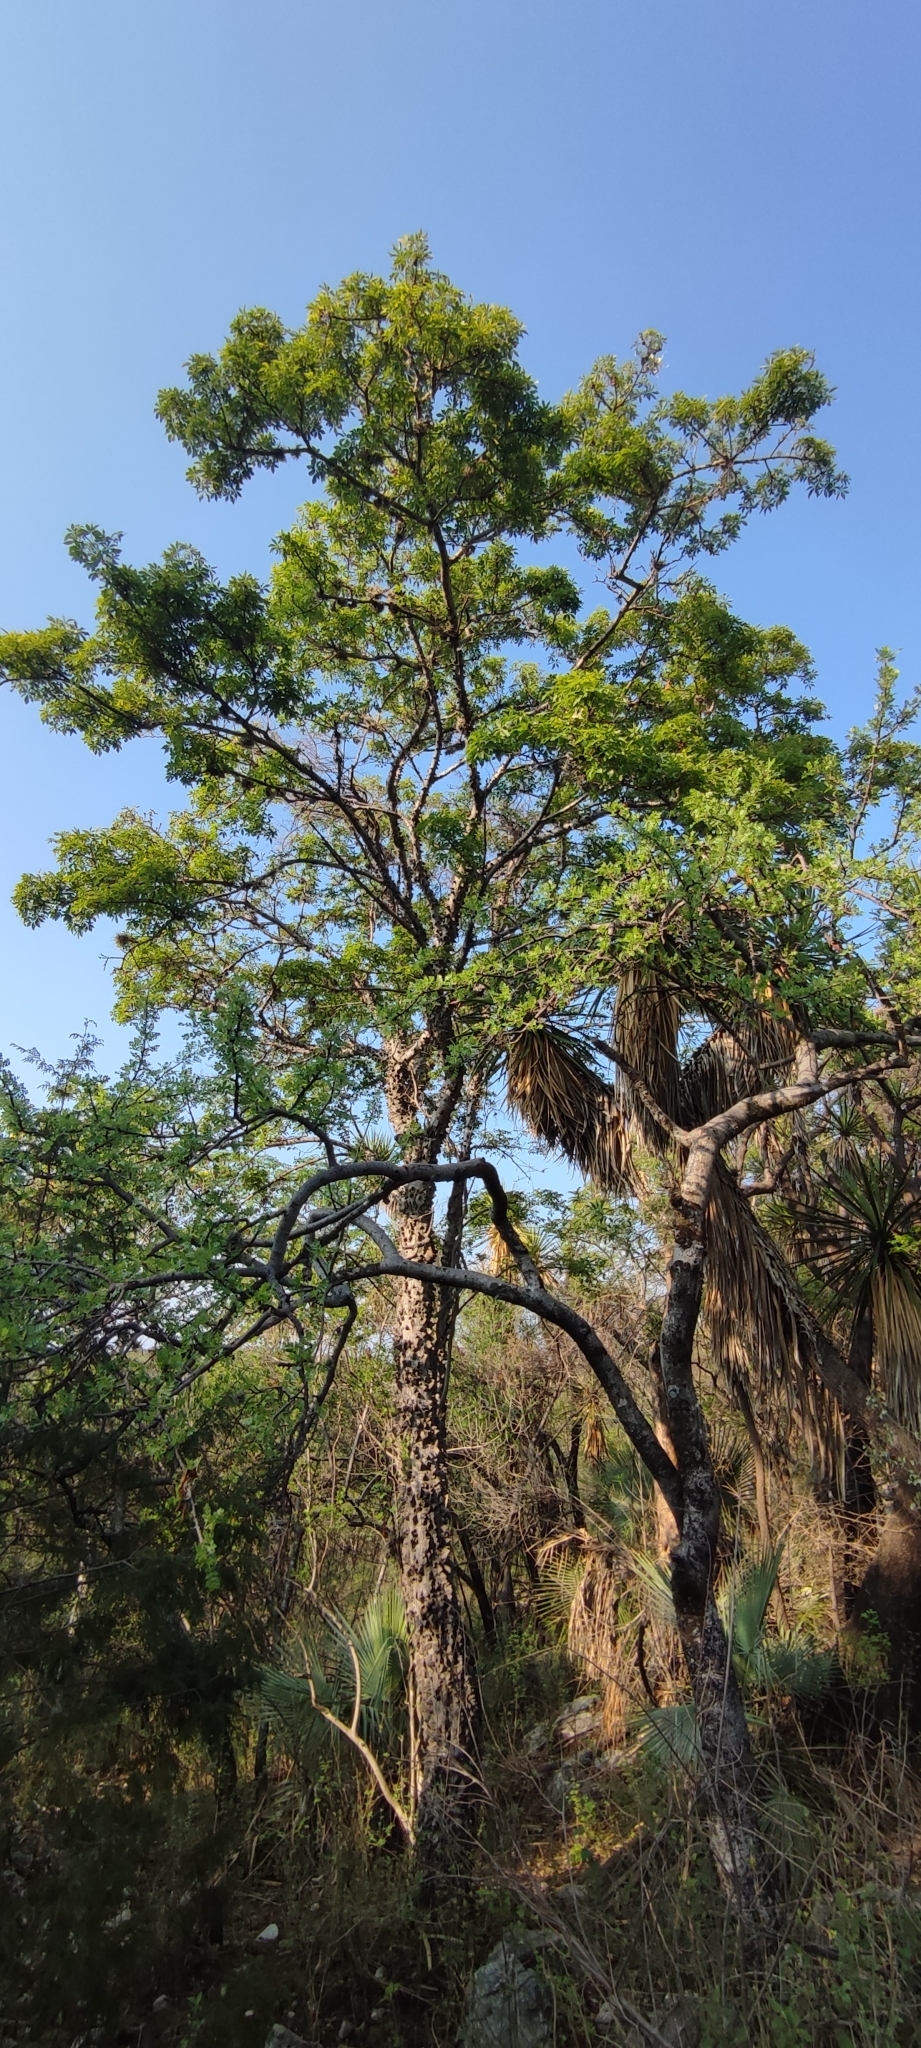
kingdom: Plantae
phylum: Tracheophyta
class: Magnoliopsida
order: Malvales
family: Malvaceae
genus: Ceiba
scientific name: Ceiba aesculifolia
